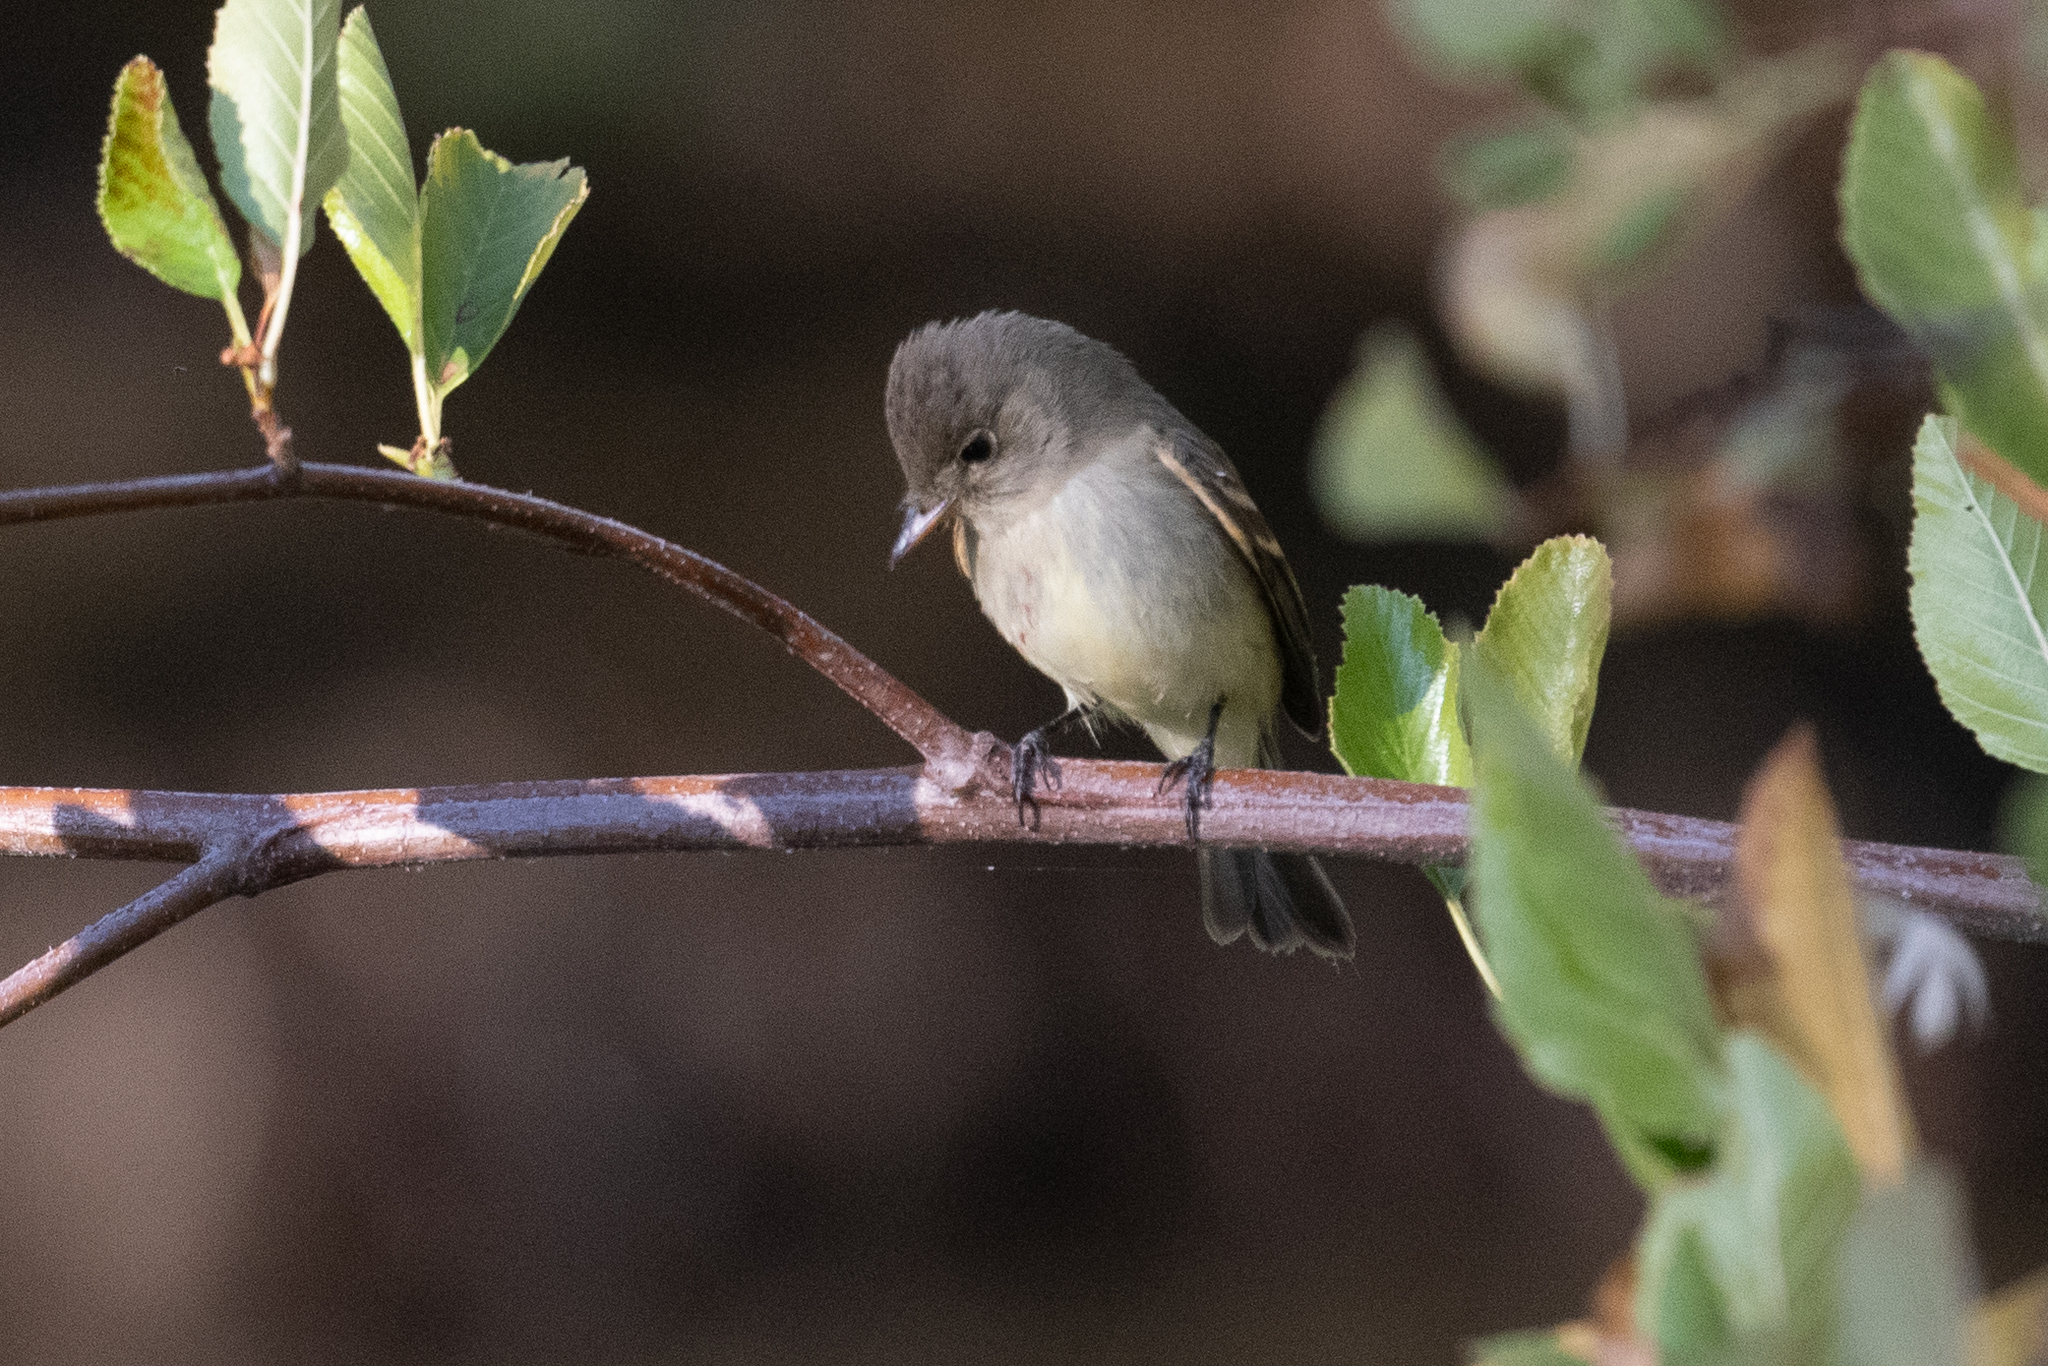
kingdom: Animalia
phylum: Chordata
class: Aves
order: Passeriformes
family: Tyrannidae
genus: Empidonax
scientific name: Empidonax traillii
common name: Willow flycatcher
